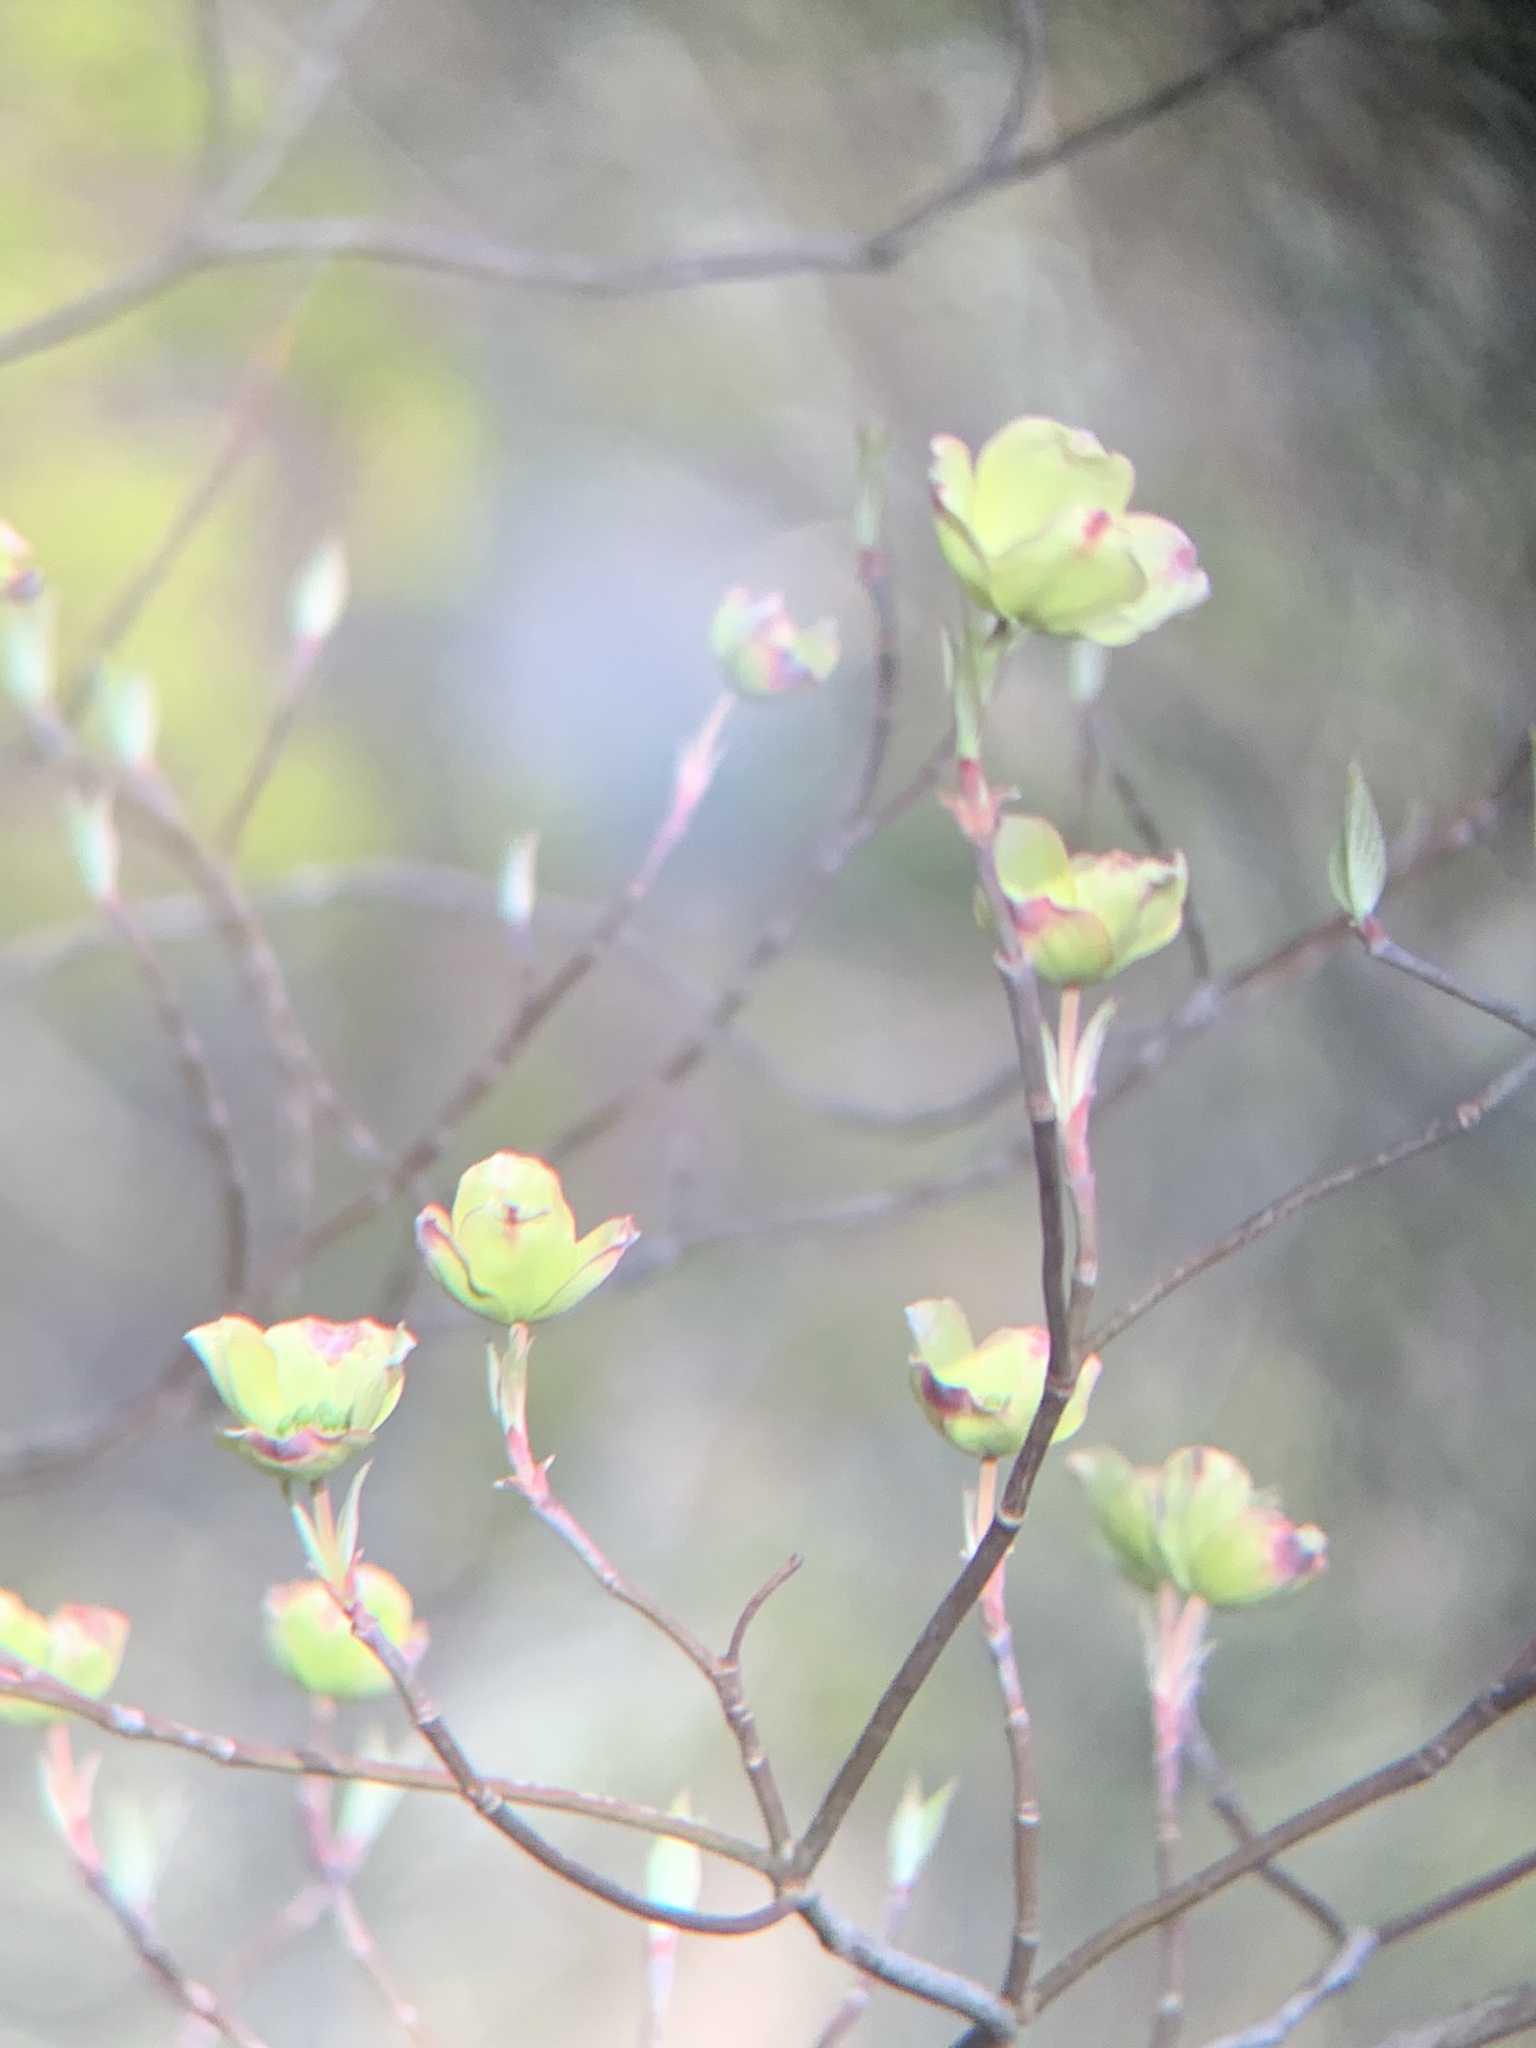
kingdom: Plantae
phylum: Tracheophyta
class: Magnoliopsida
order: Cornales
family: Cornaceae
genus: Cornus
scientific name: Cornus florida
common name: Flowering dogwood
